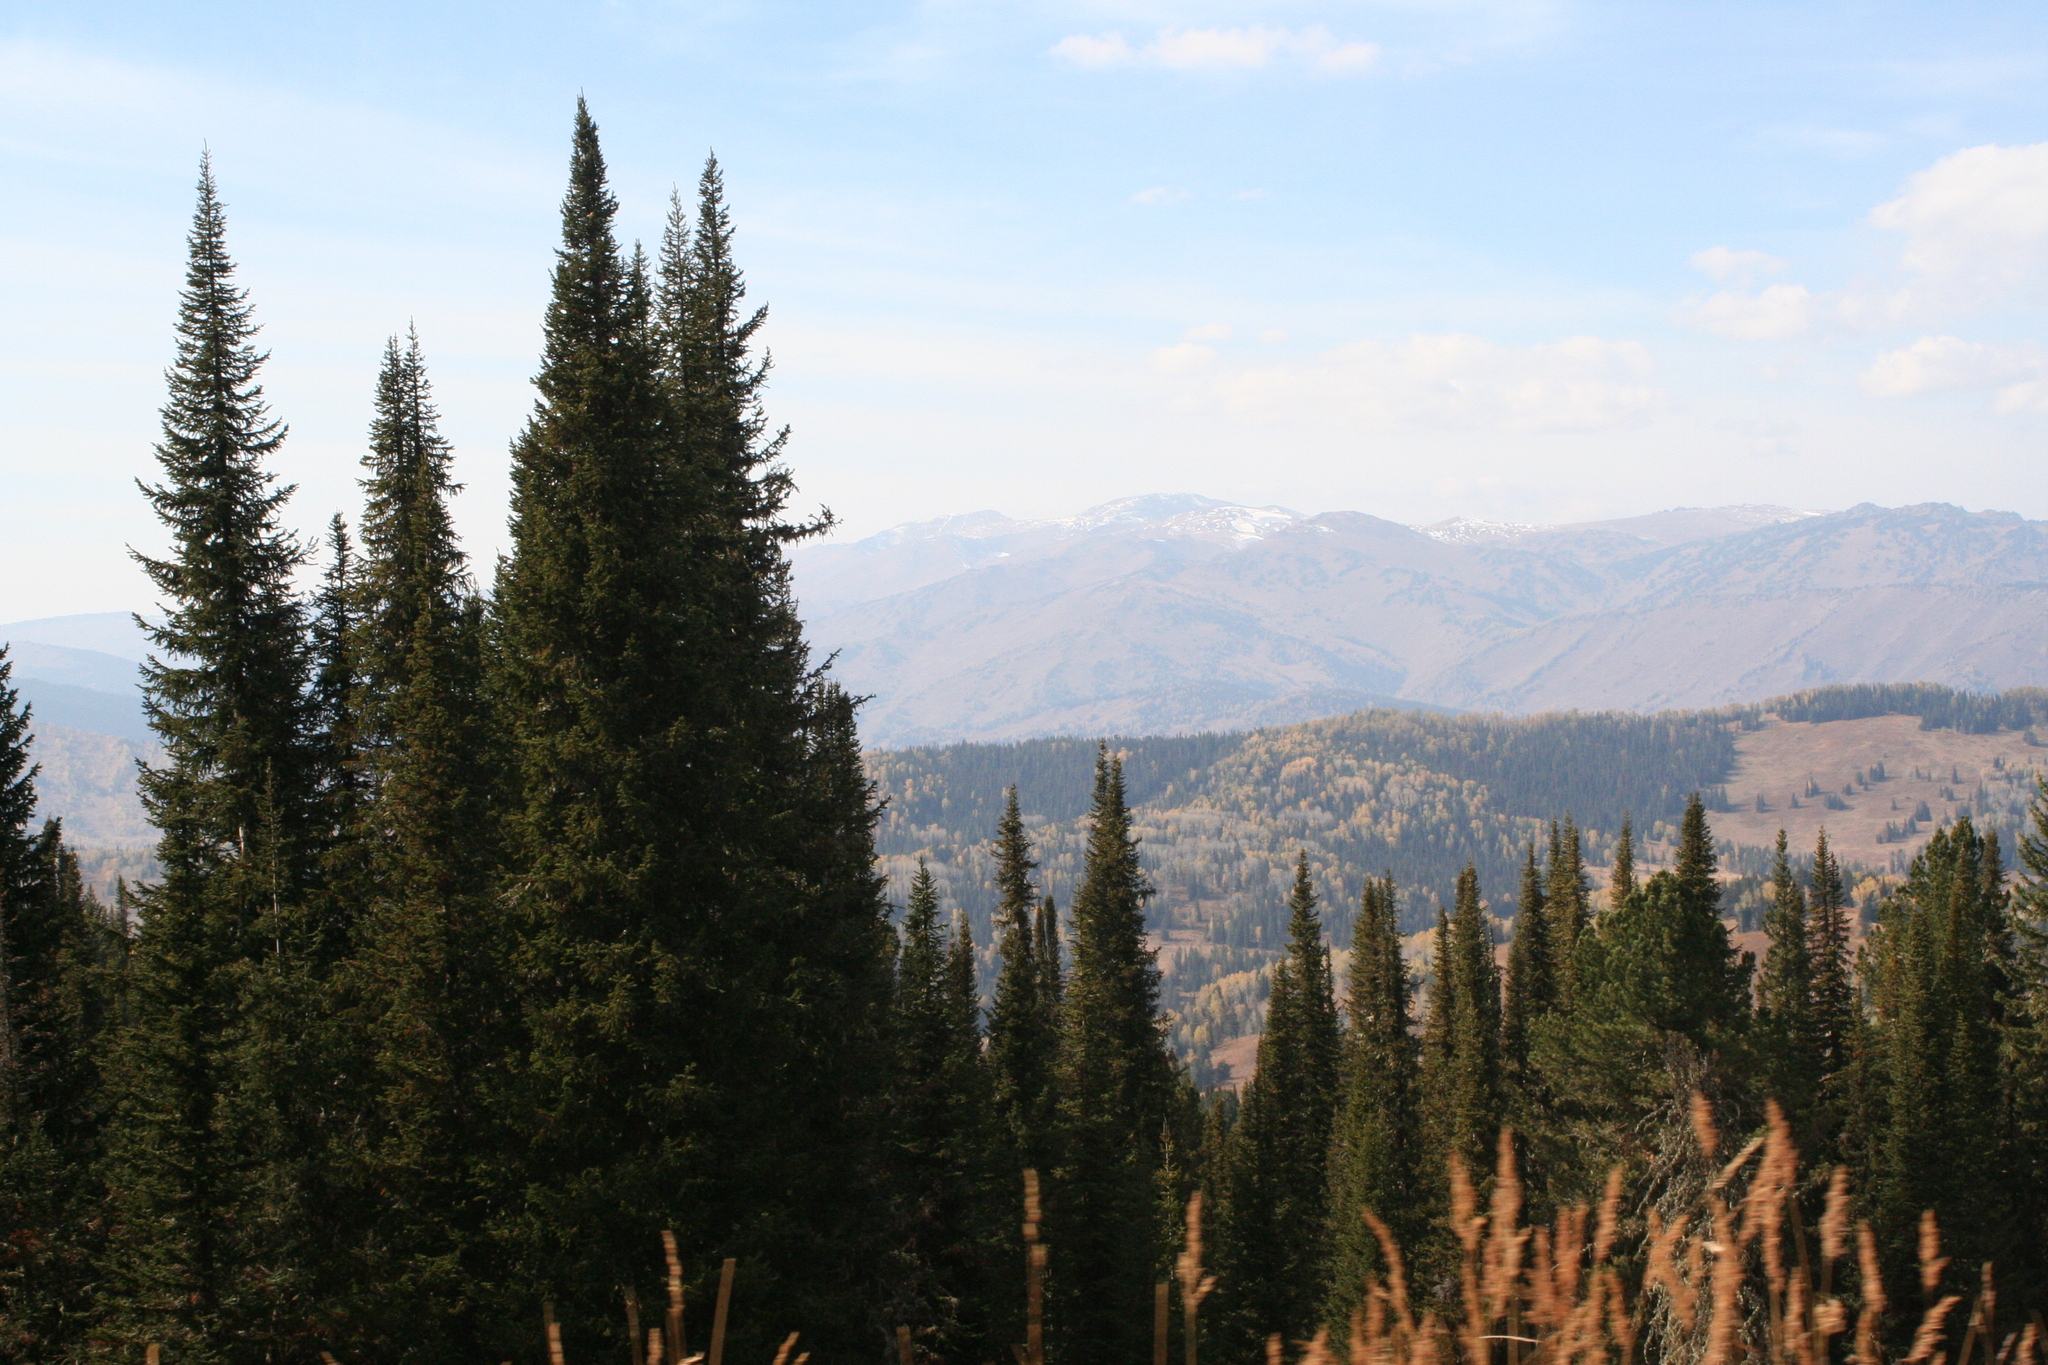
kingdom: Plantae
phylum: Tracheophyta
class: Pinopsida
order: Pinales
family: Pinaceae
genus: Abies
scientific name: Abies sibirica
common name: Siberian fir
